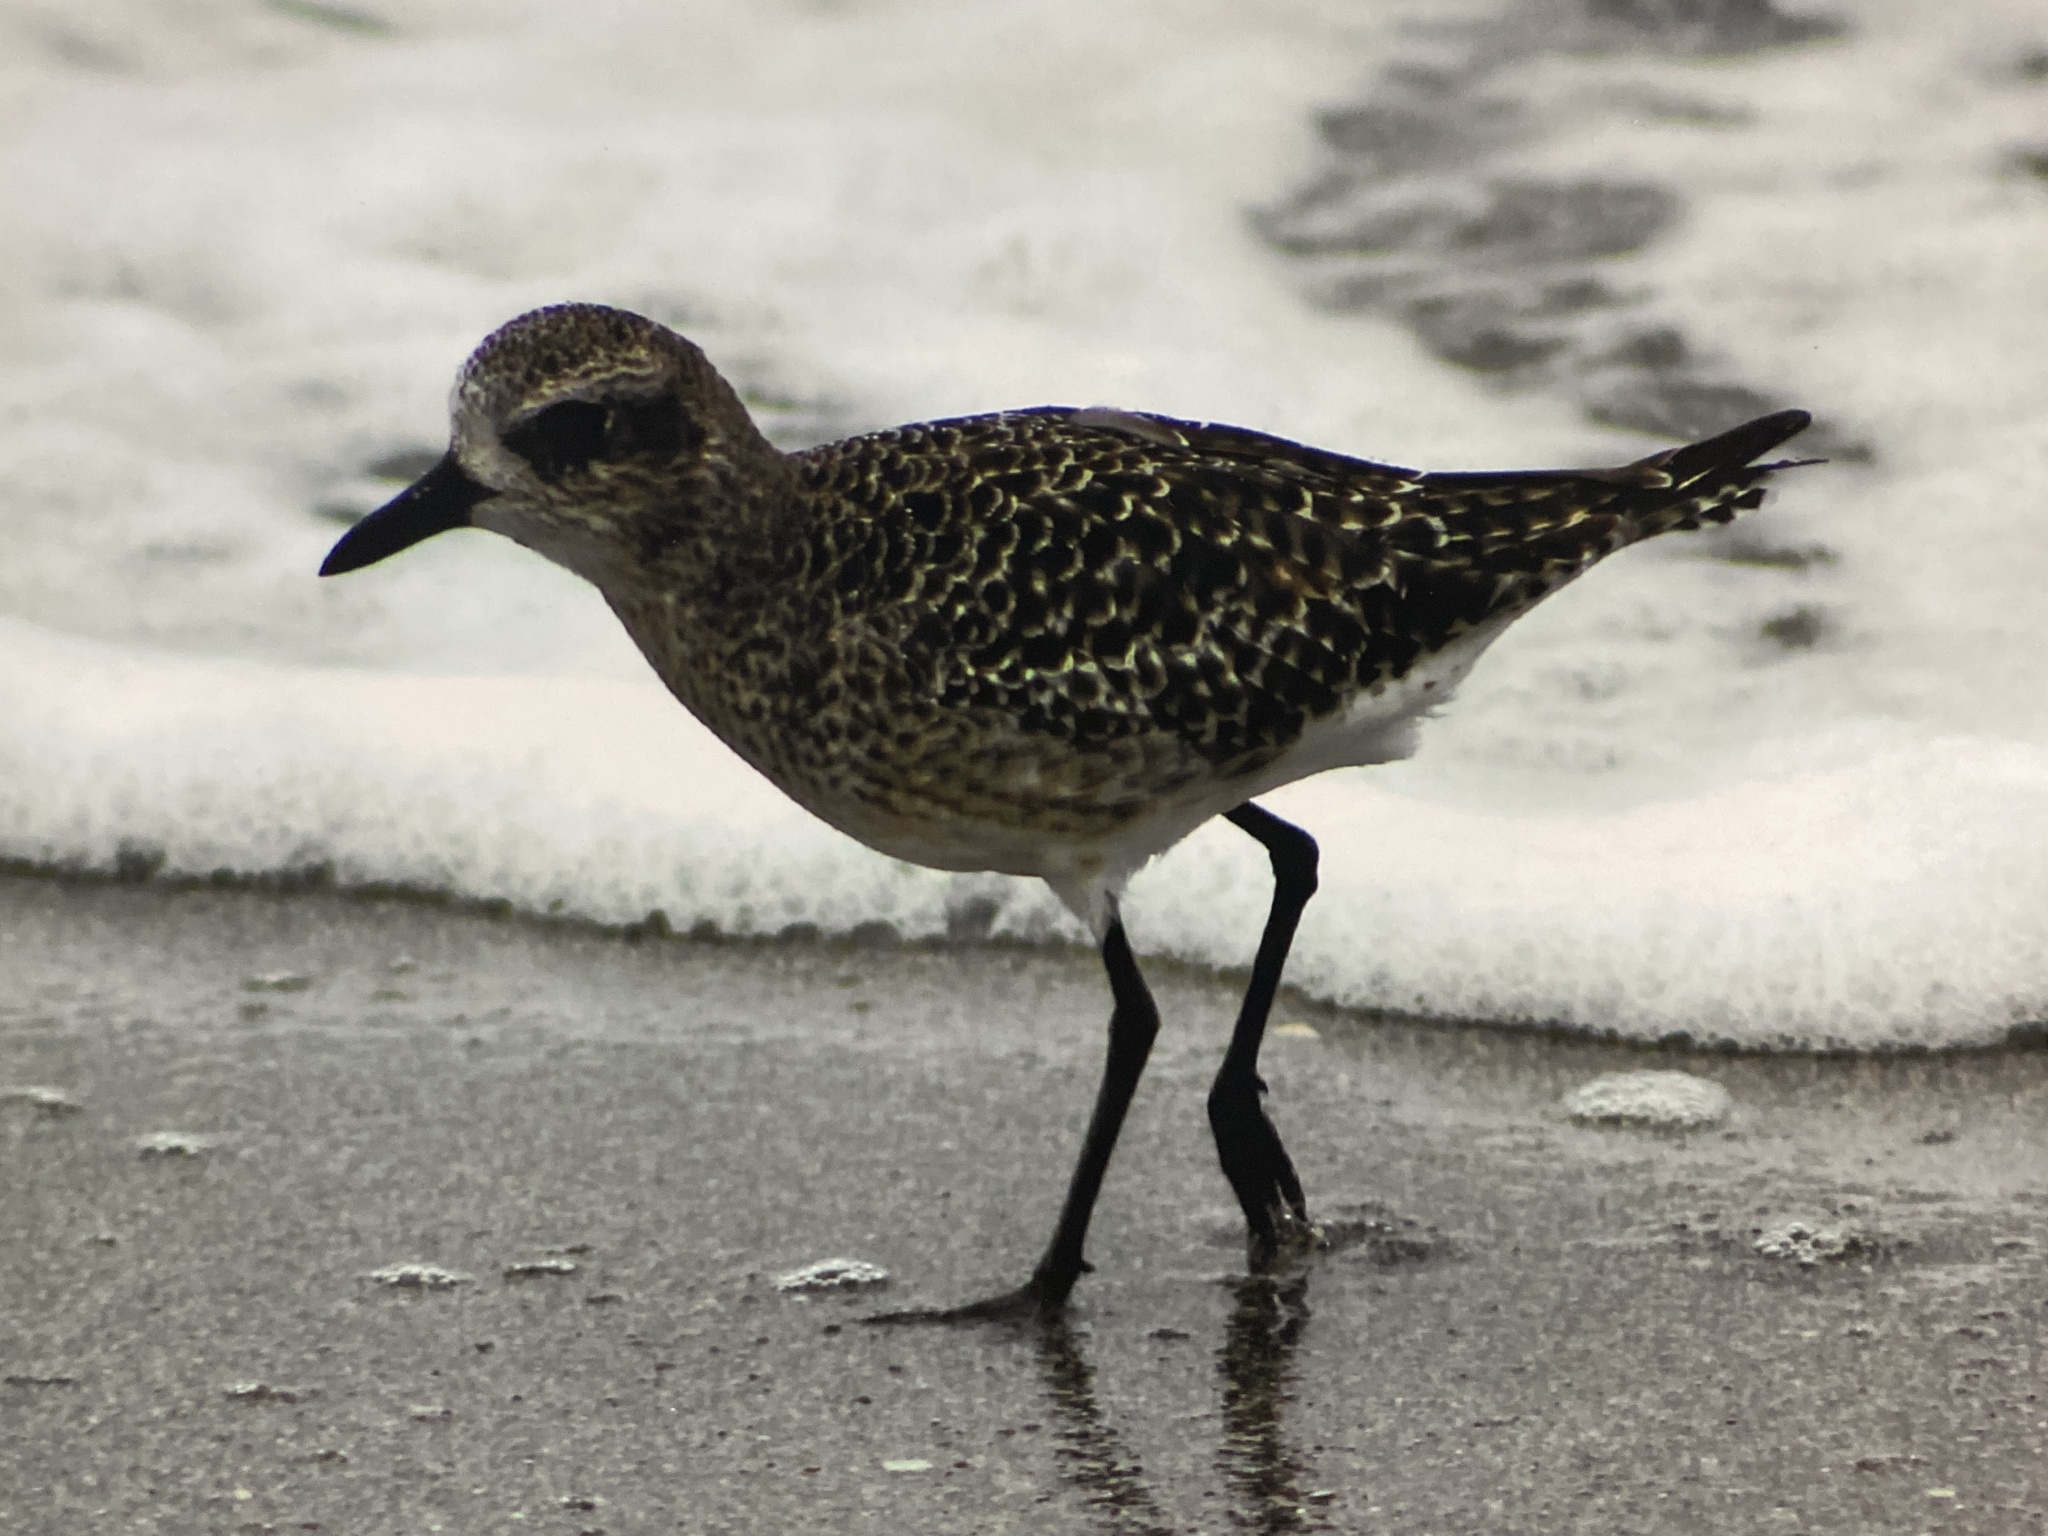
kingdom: Animalia
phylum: Chordata
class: Aves
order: Charadriiformes
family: Charadriidae
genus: Pluvialis
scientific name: Pluvialis squatarola
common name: Grey plover
